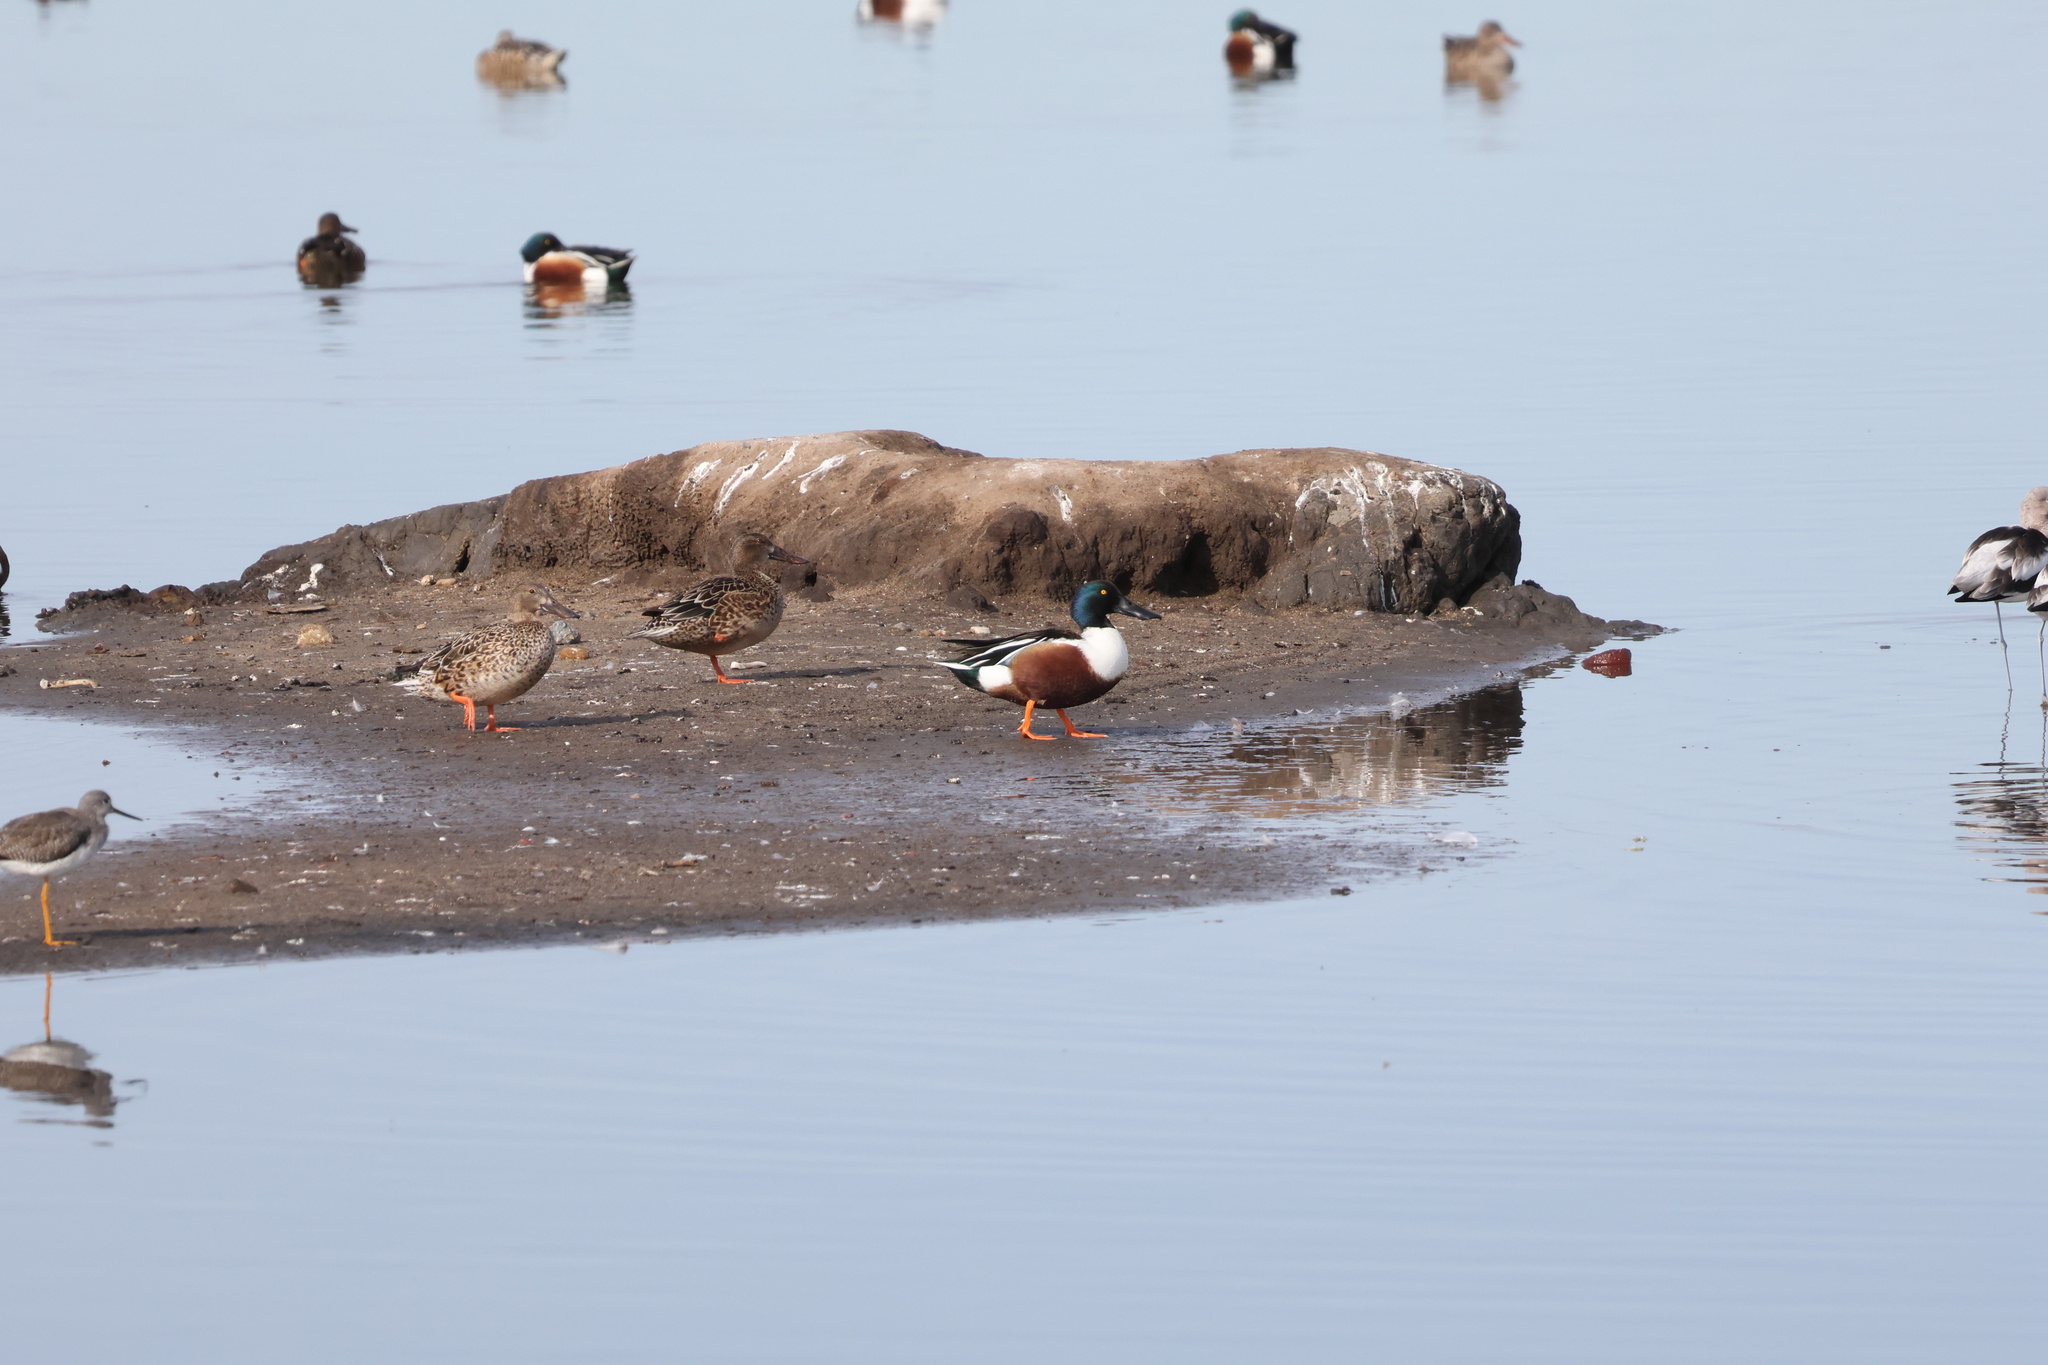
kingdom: Animalia
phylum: Chordata
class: Aves
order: Anseriformes
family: Anatidae
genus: Spatula
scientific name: Spatula clypeata
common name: Northern shoveler
